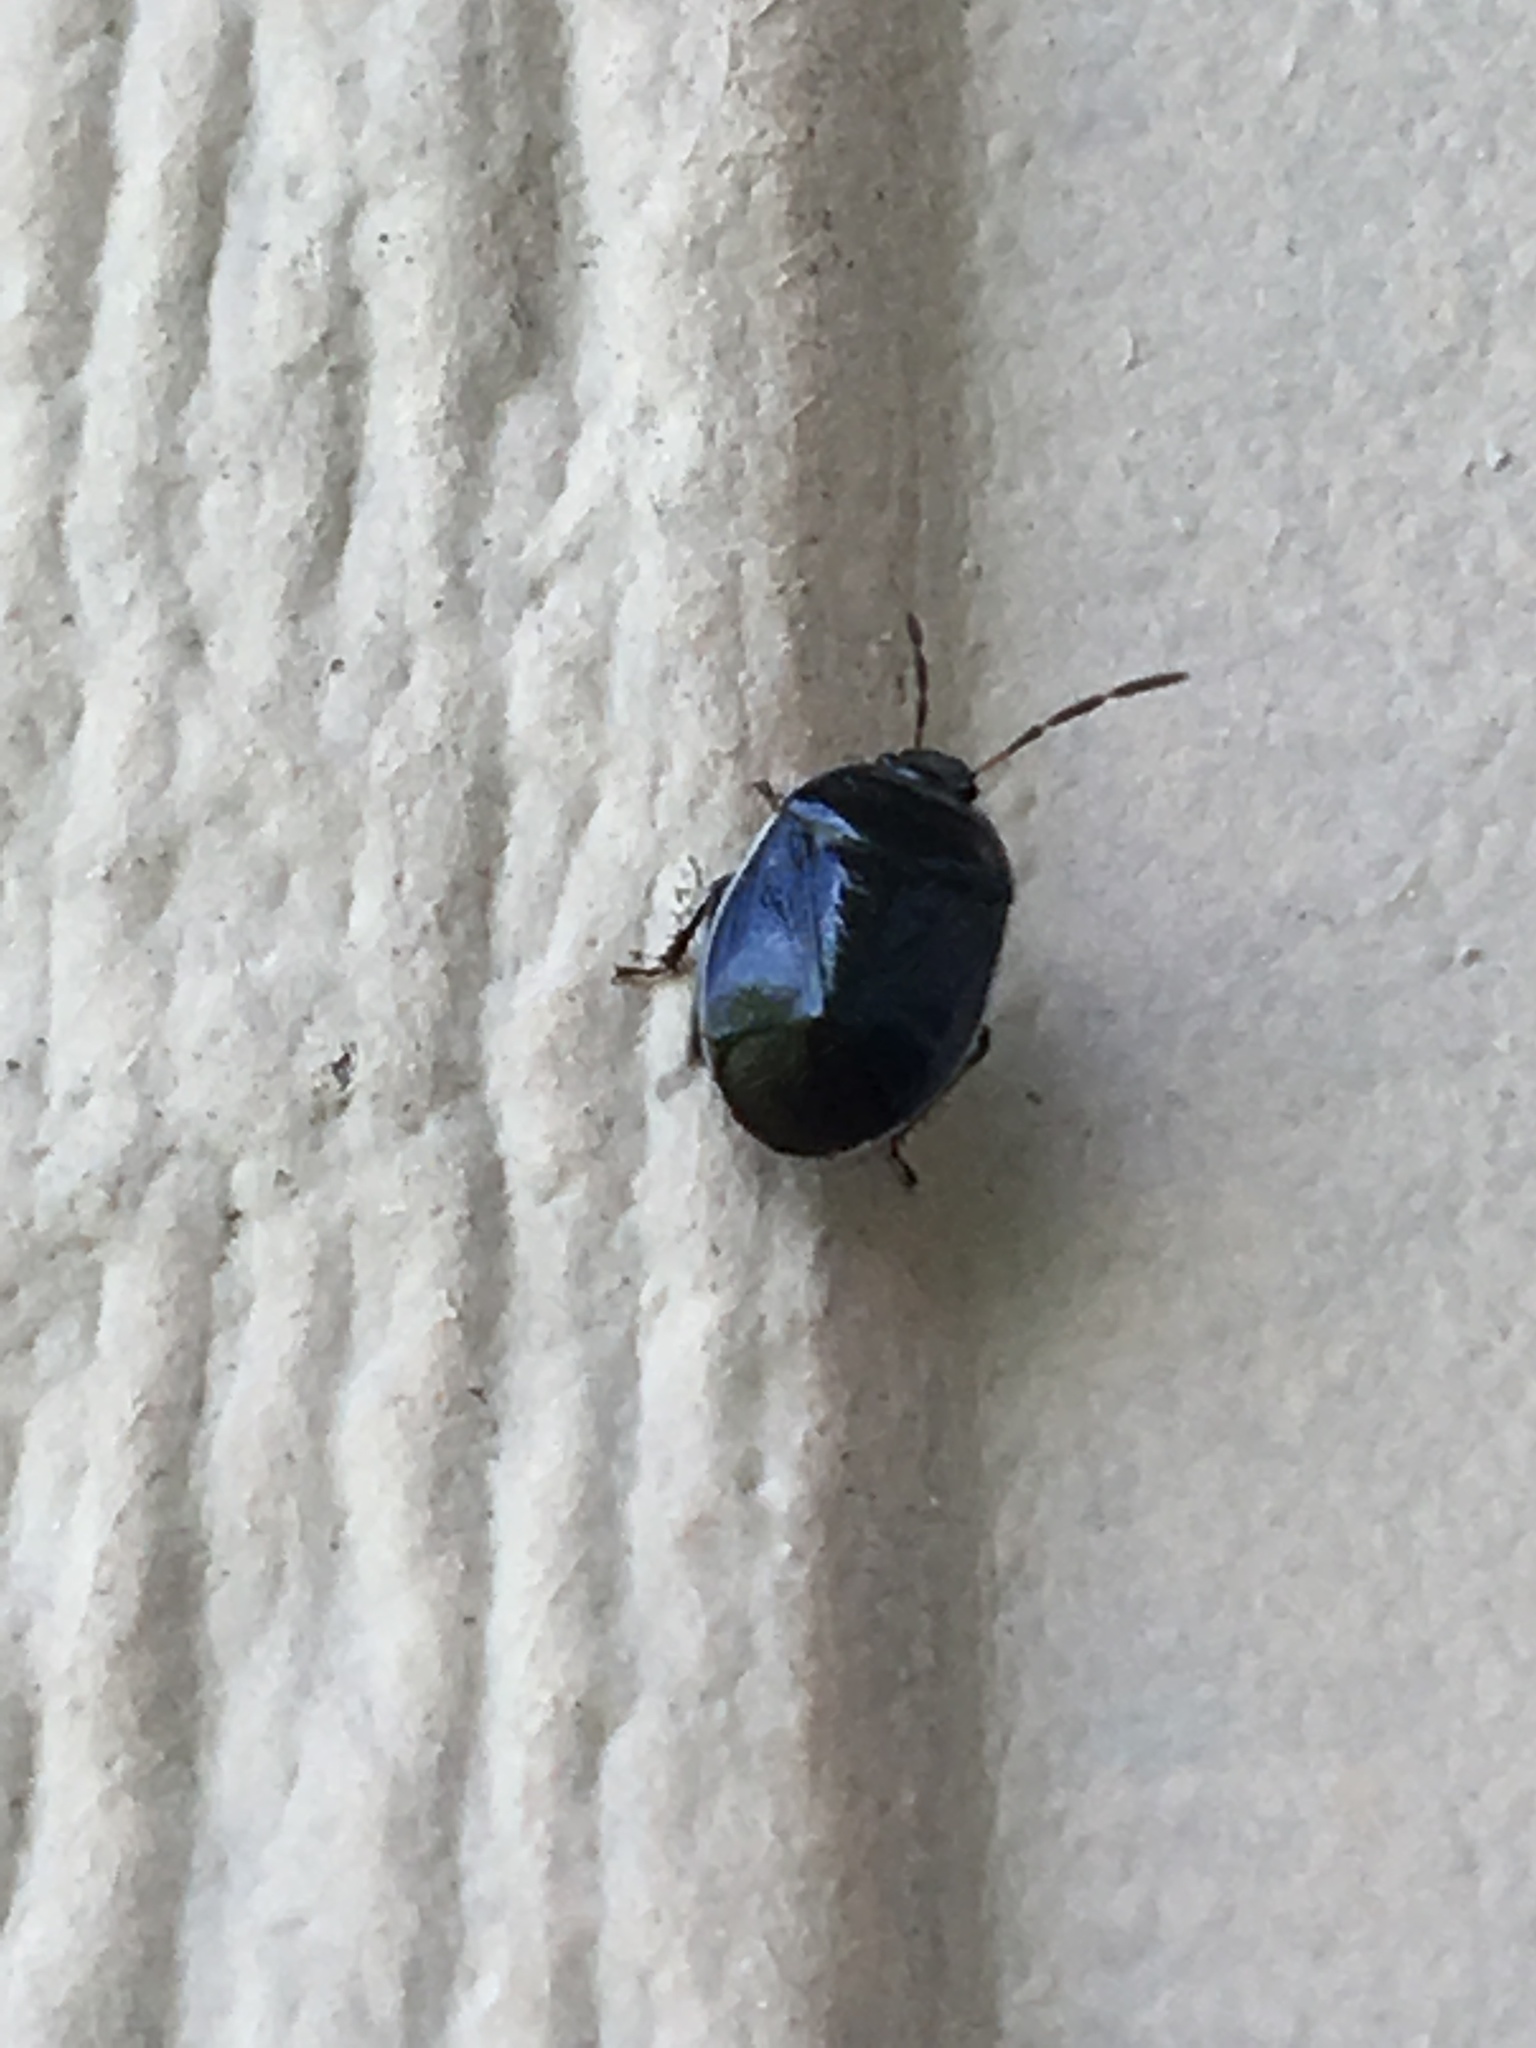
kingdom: Animalia
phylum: Arthropoda
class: Insecta
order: Hemiptera
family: Cydnidae
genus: Sehirus
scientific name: Sehirus cinctus
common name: White-margined burrower bug
